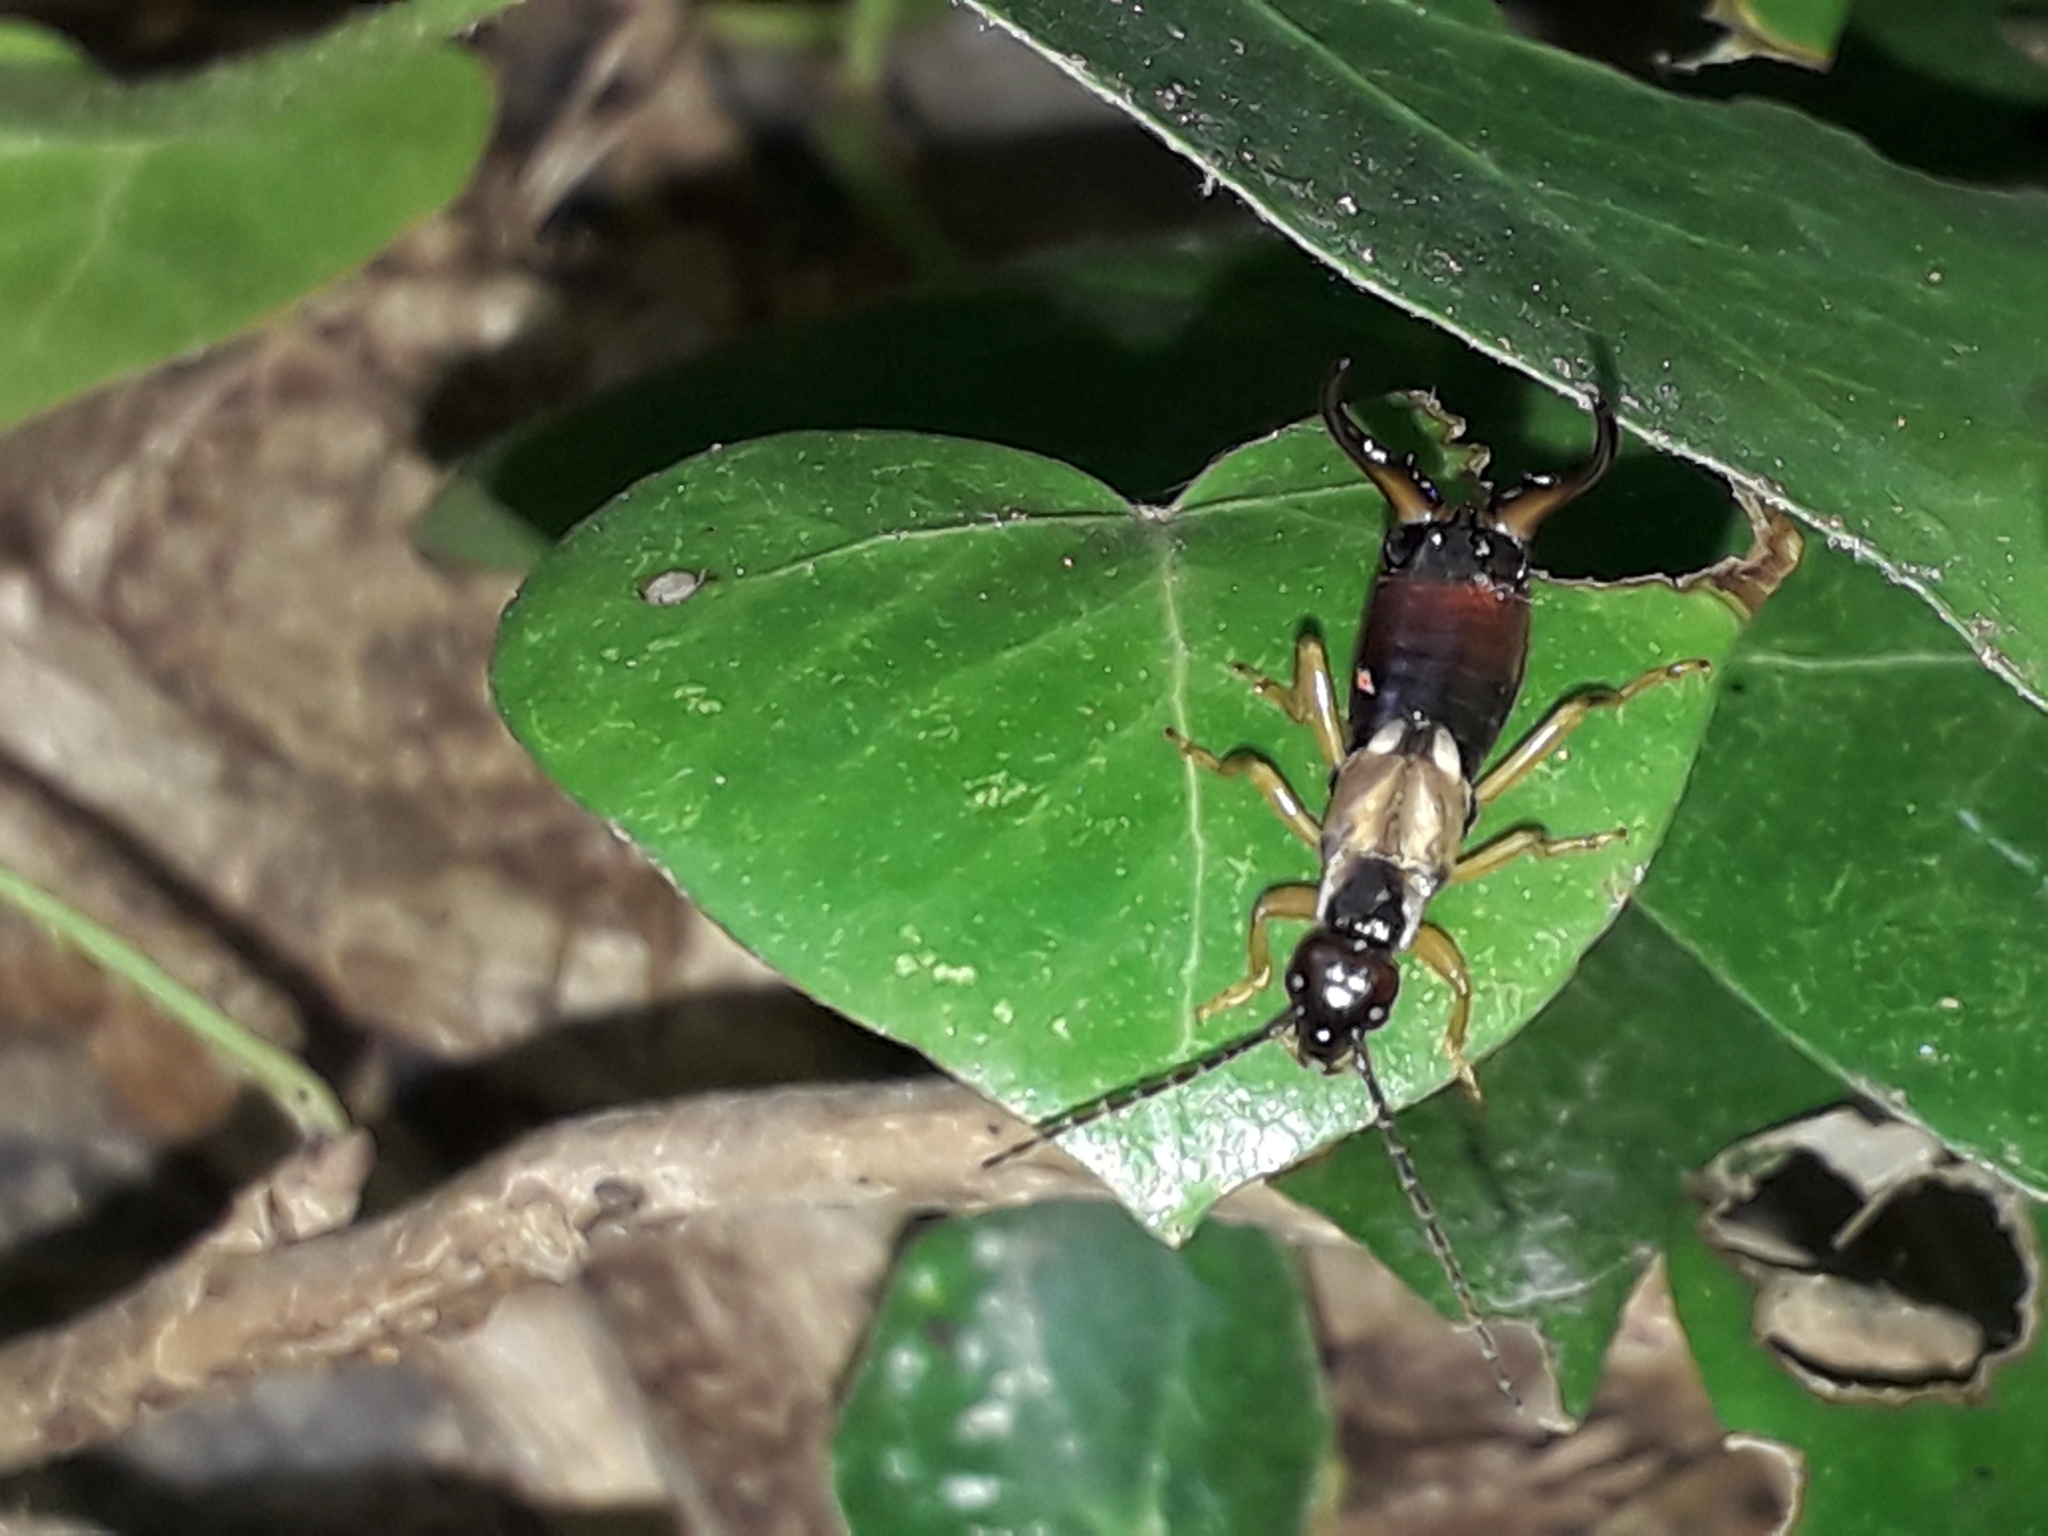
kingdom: Animalia
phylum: Arthropoda
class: Insecta
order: Dermaptera
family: Forficulidae
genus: Forficula
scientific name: Forficula
